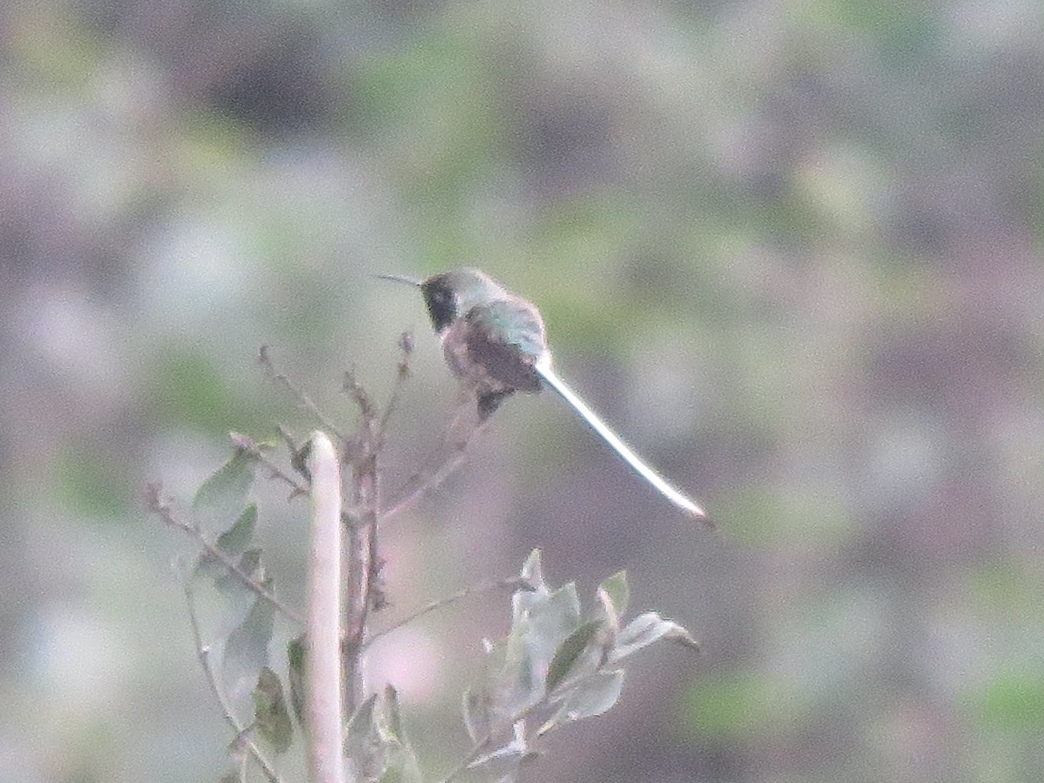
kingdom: Animalia
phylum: Chordata
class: Aves
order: Apodiformes
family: Trochilidae
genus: Thaumastura
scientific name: Thaumastura cora
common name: Peruvian sheartail
